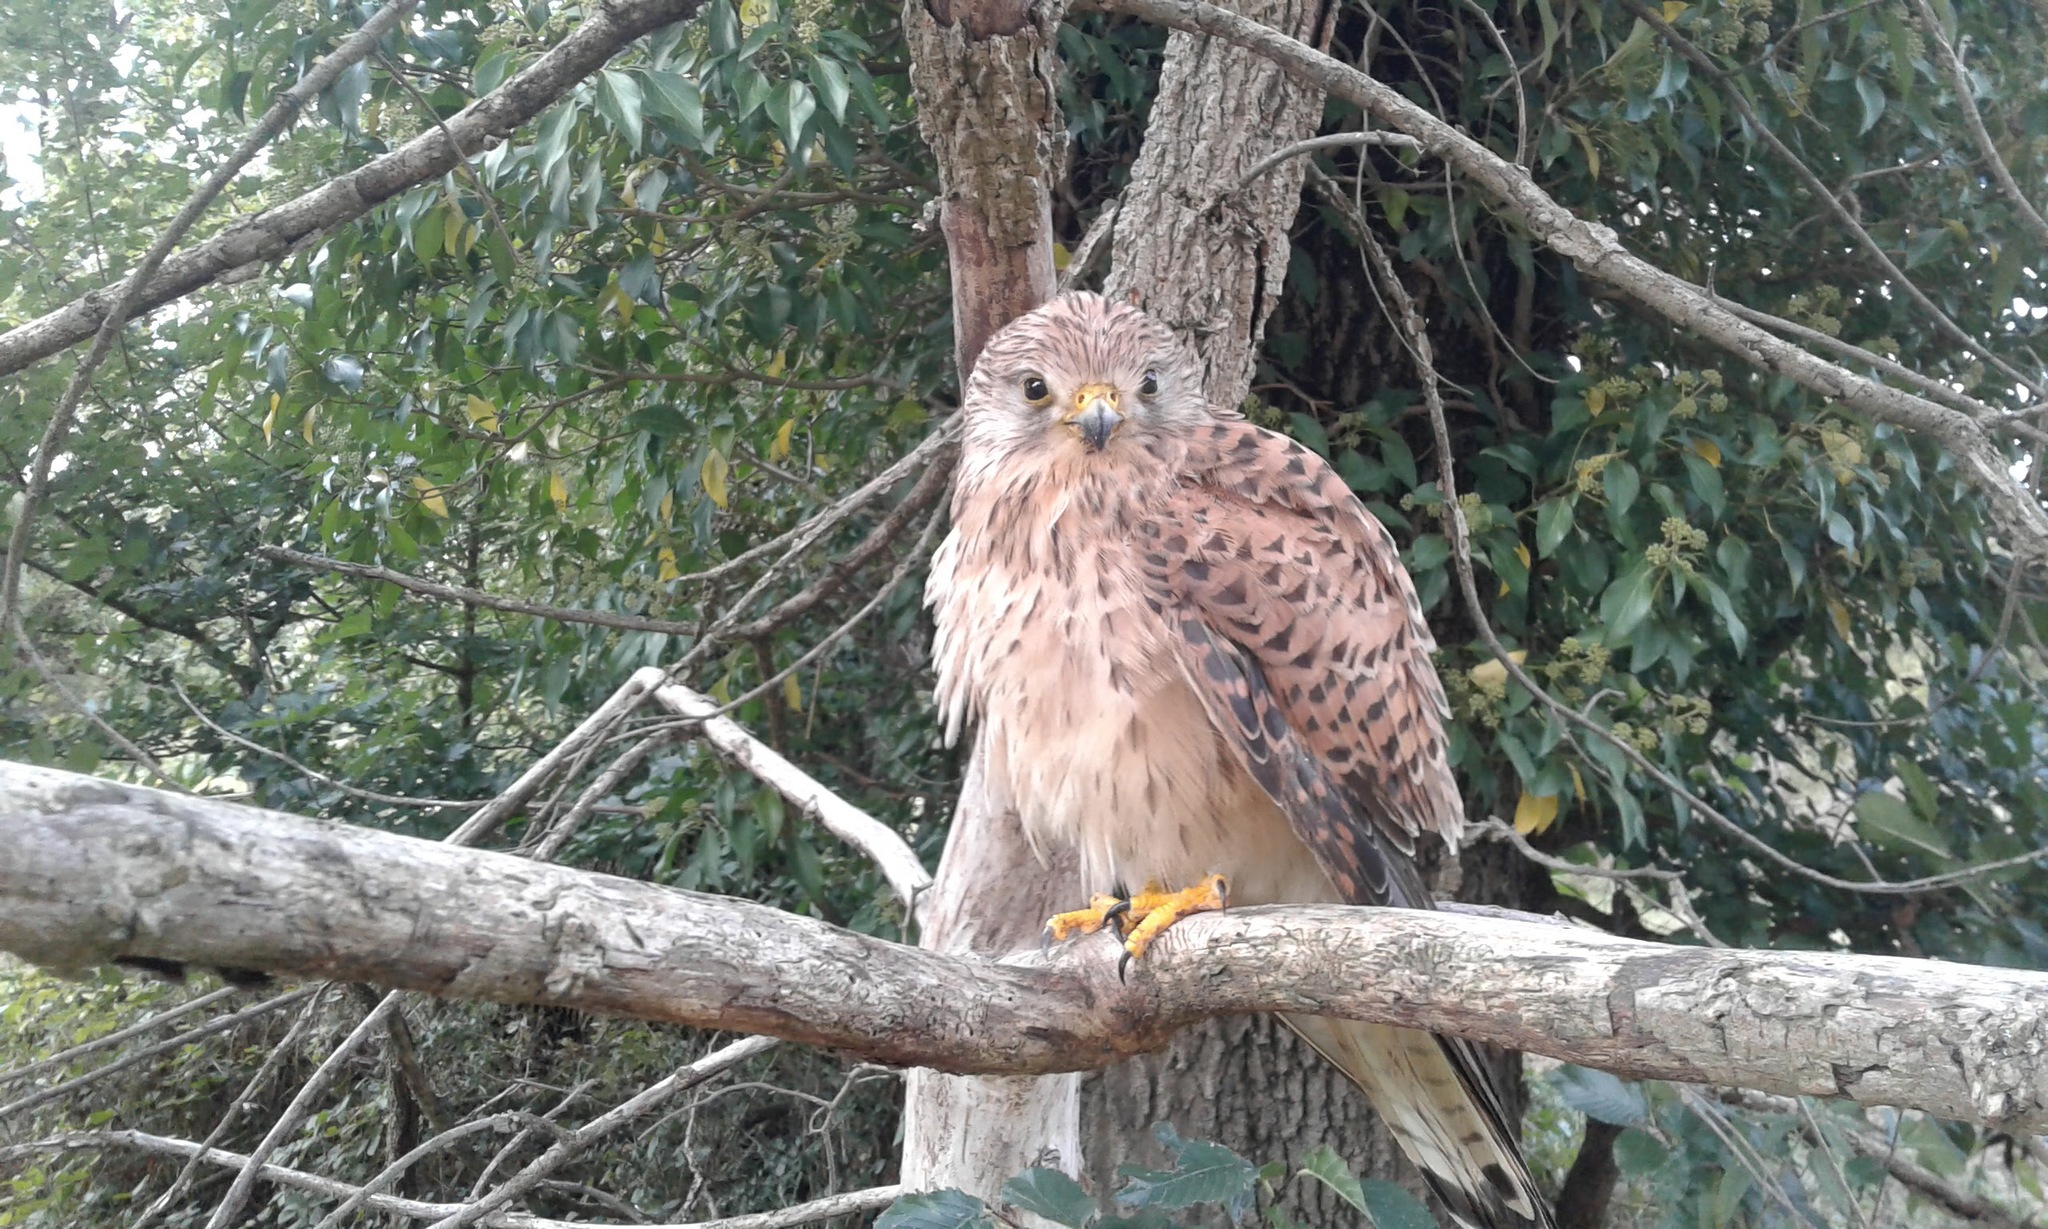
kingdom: Animalia
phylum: Chordata
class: Aves
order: Falconiformes
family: Falconidae
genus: Falco
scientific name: Falco tinnunculus
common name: Common kestrel
